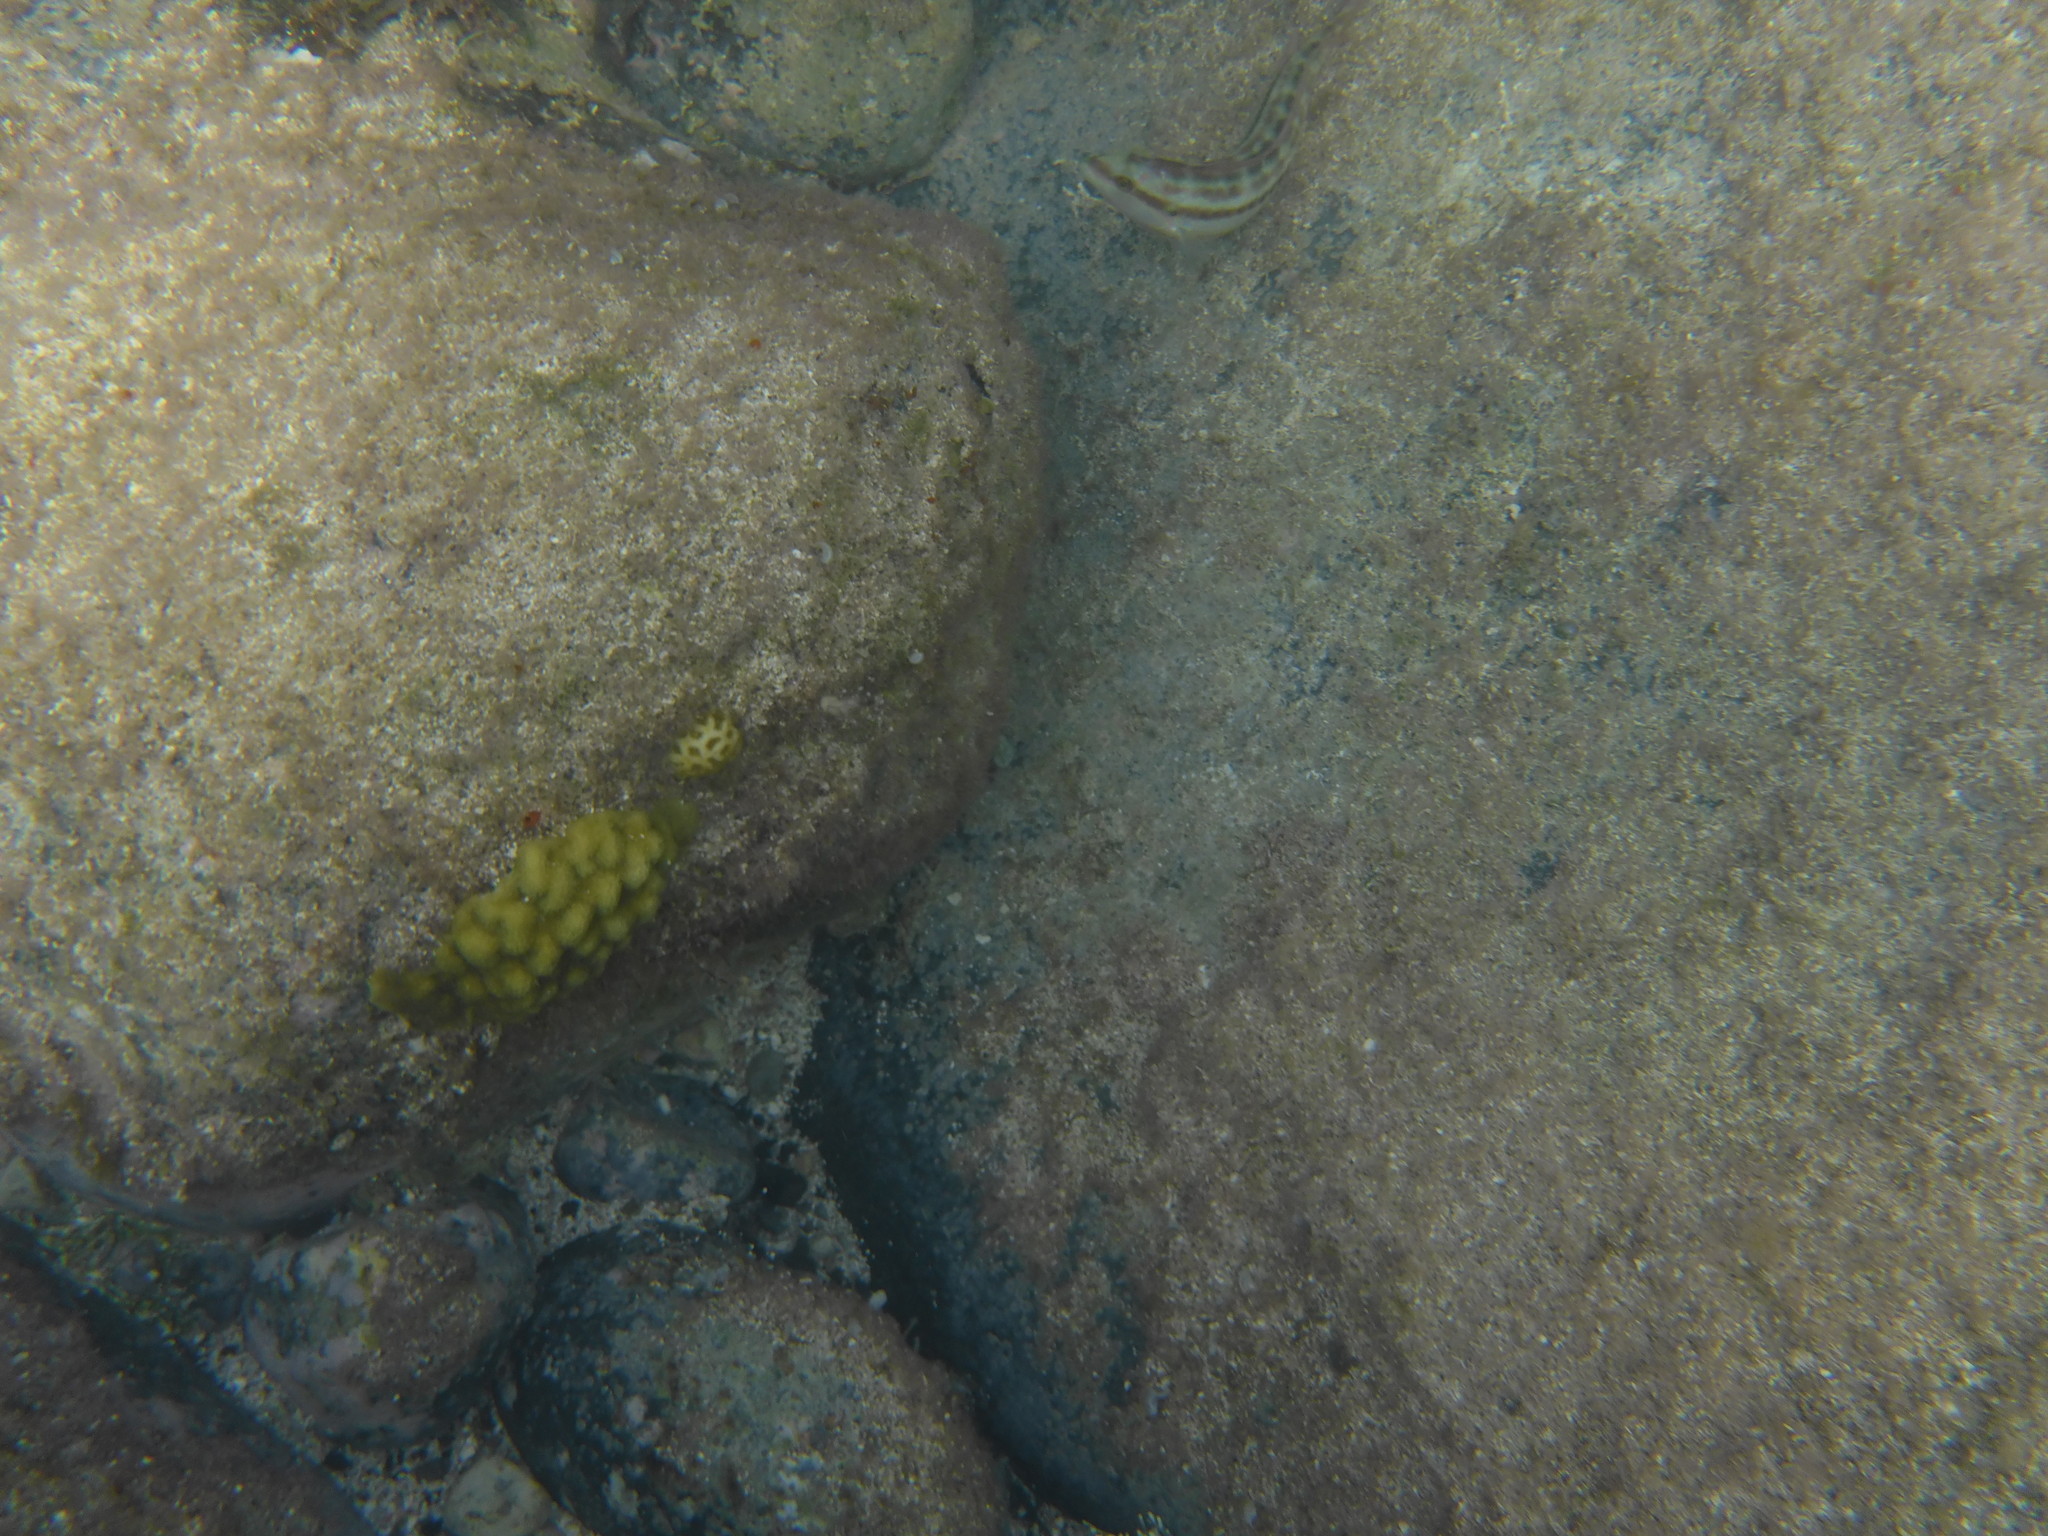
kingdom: Animalia
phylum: Chordata
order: Perciformes
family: Labridae
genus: Halichoeres
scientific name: Halichoeres bivittatus
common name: Slippery dick
